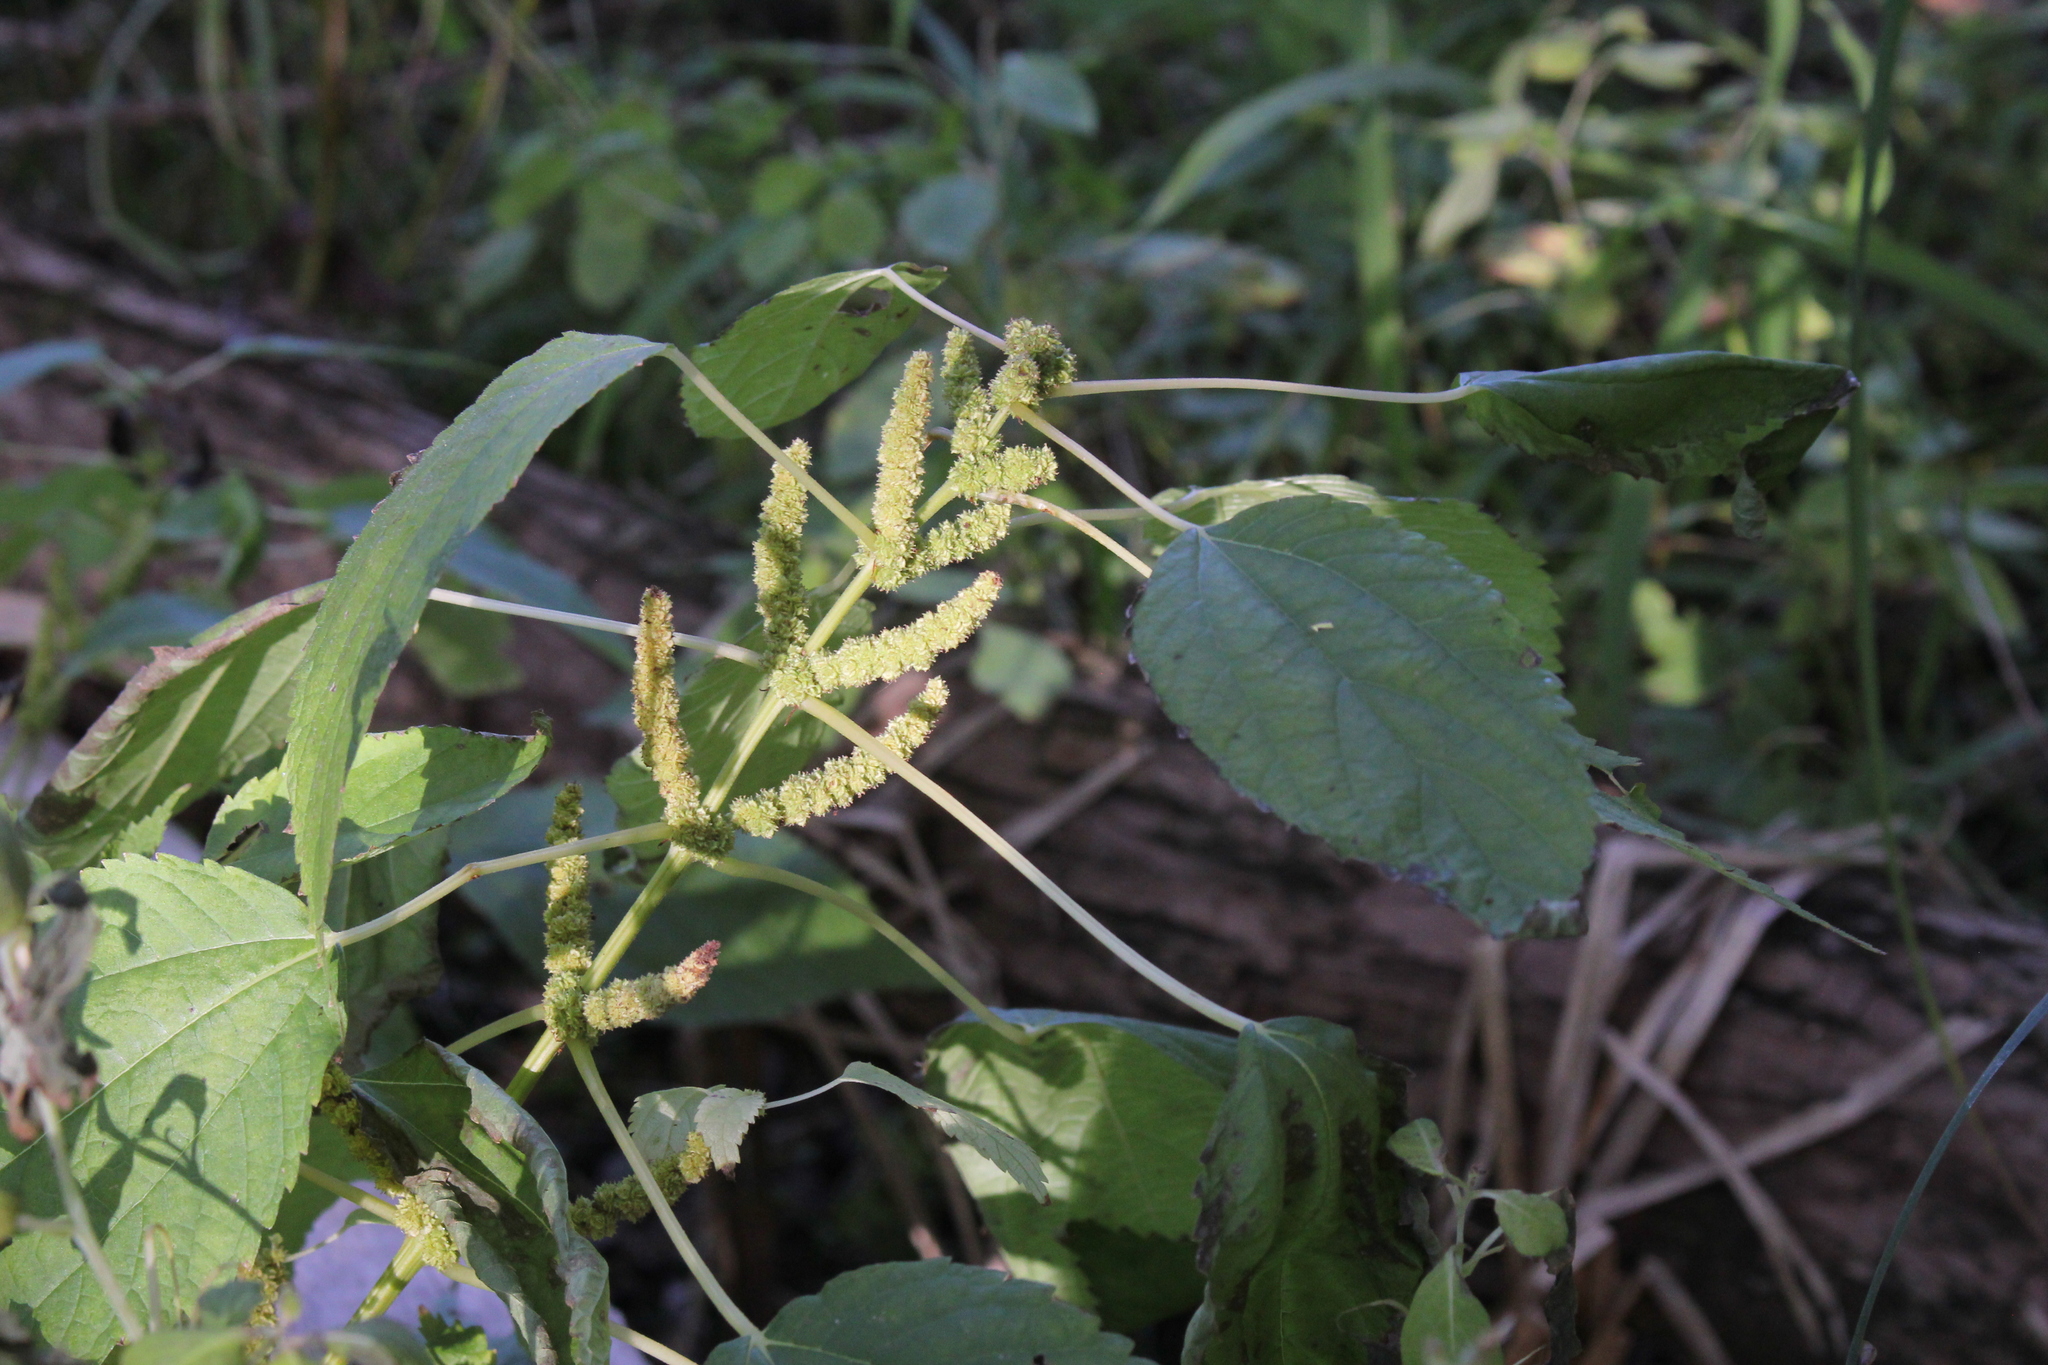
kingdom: Plantae
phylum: Tracheophyta
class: Magnoliopsida
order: Rosales
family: Urticaceae
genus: Boehmeria
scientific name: Boehmeria cylindrica
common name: Bog-hemp
